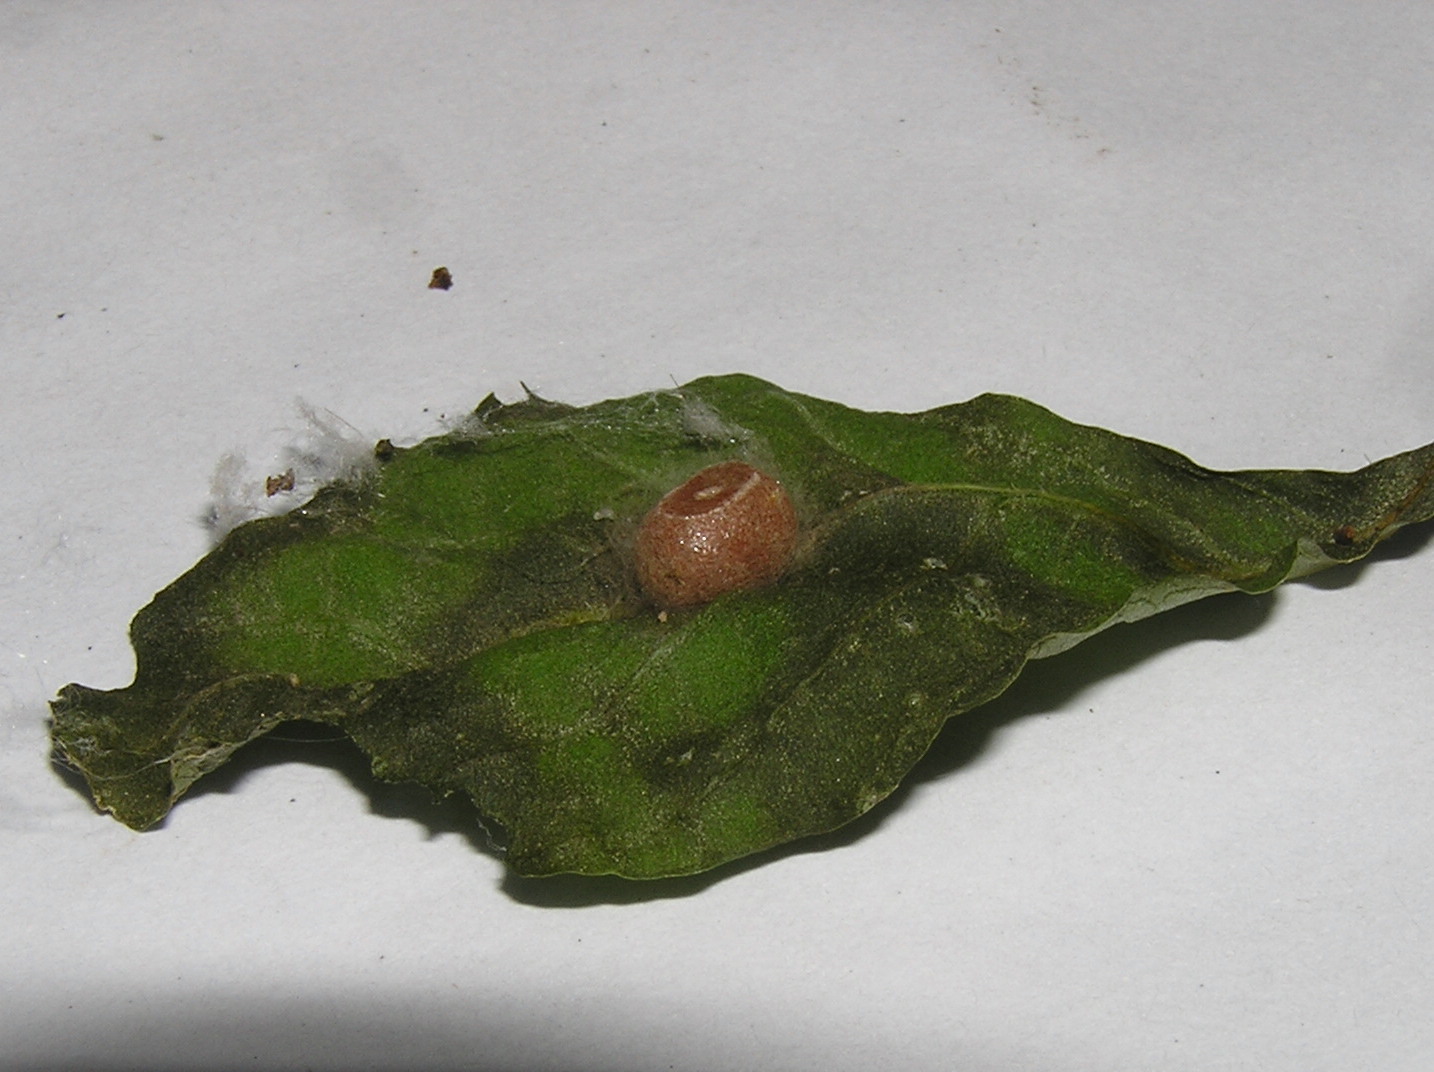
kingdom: Animalia
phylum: Arthropoda
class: Insecta
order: Lepidoptera
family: Limacodidae
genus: Orthocraspeda
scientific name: Orthocraspeda sordida
